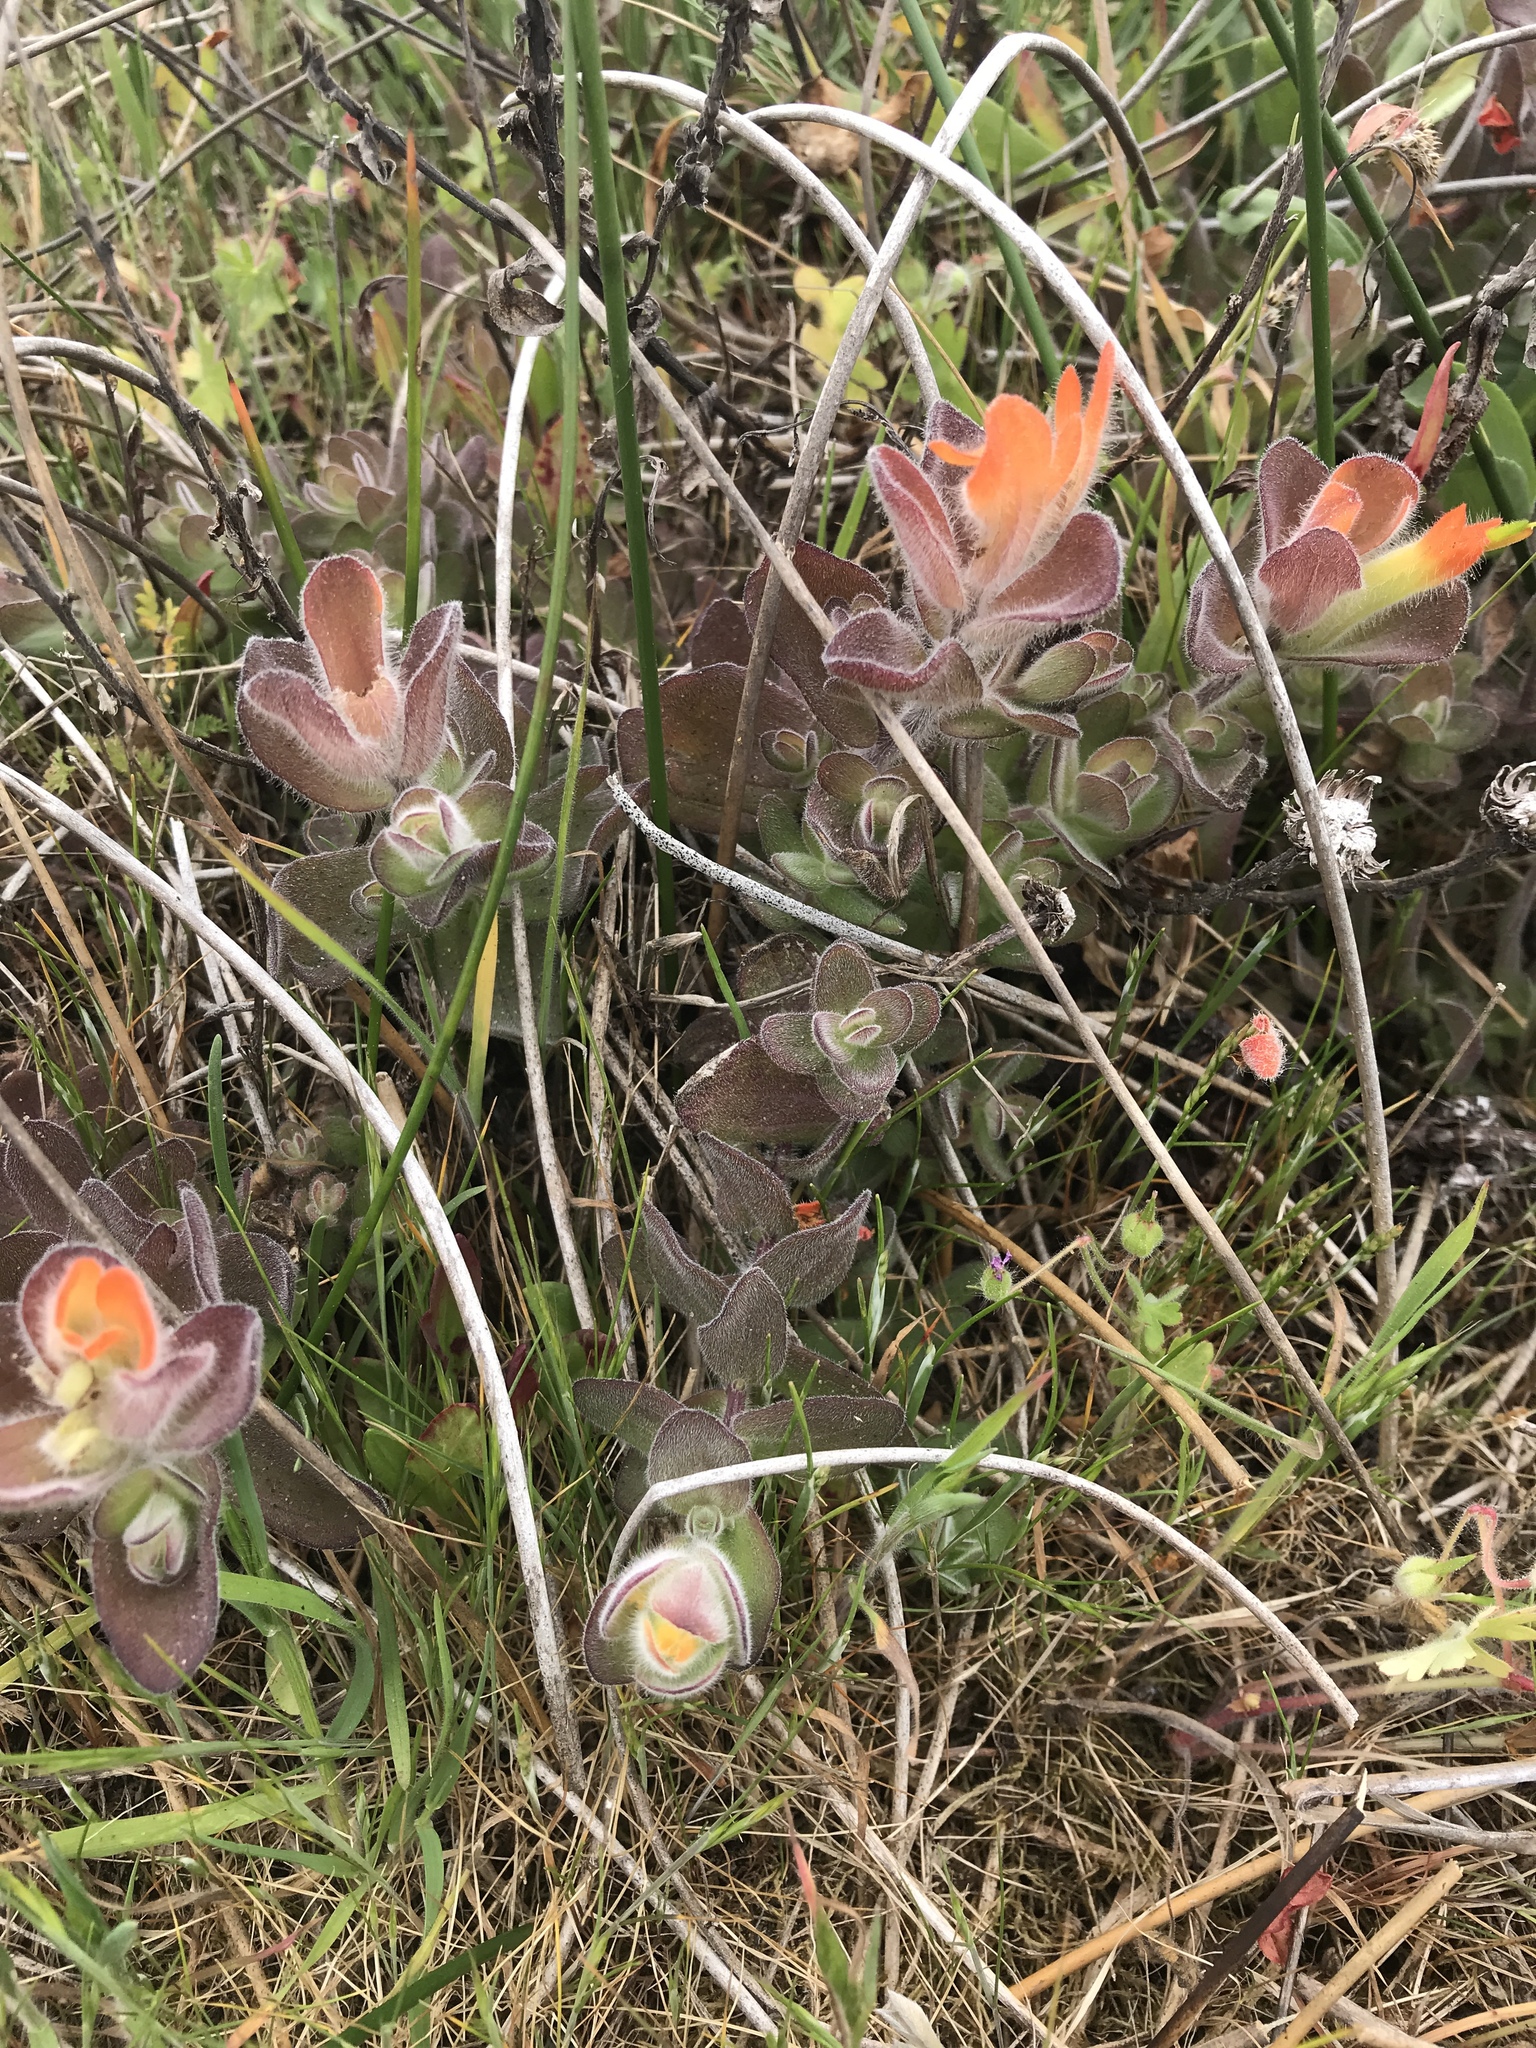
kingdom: Plantae
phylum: Tracheophyta
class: Magnoliopsida
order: Lamiales
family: Orobanchaceae
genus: Castilleja
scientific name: Castilleja mendocinensis
